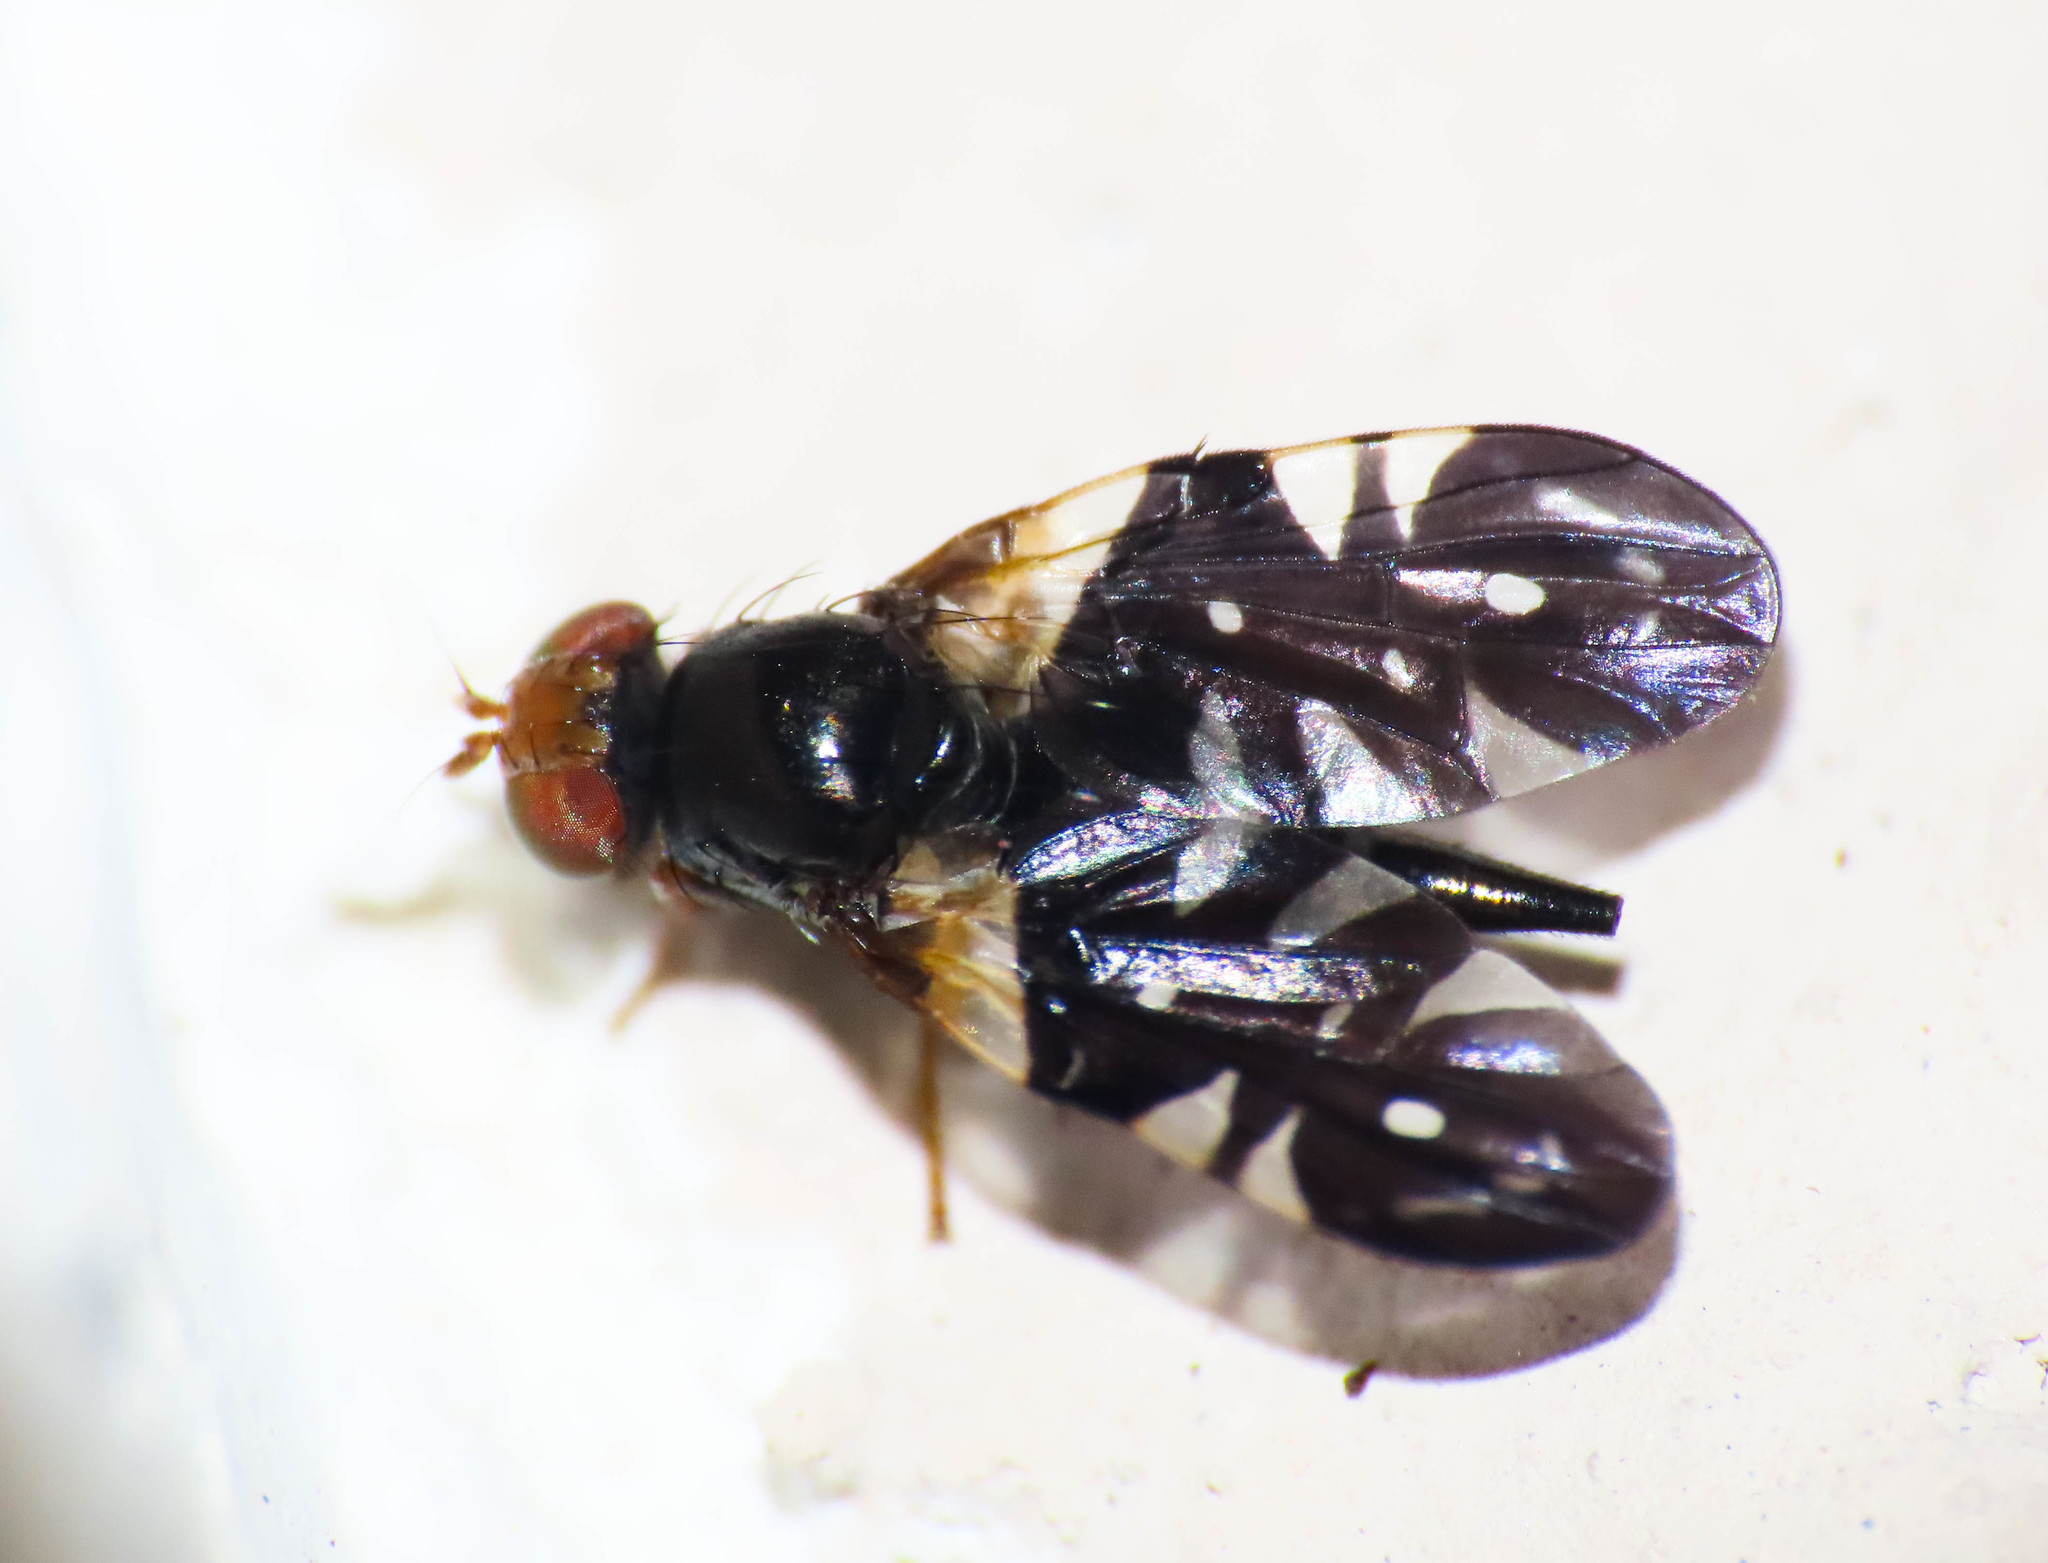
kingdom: Animalia
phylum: Arthropoda
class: Insecta
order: Diptera
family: Tephritidae
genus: Aciura
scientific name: Aciura coryli
